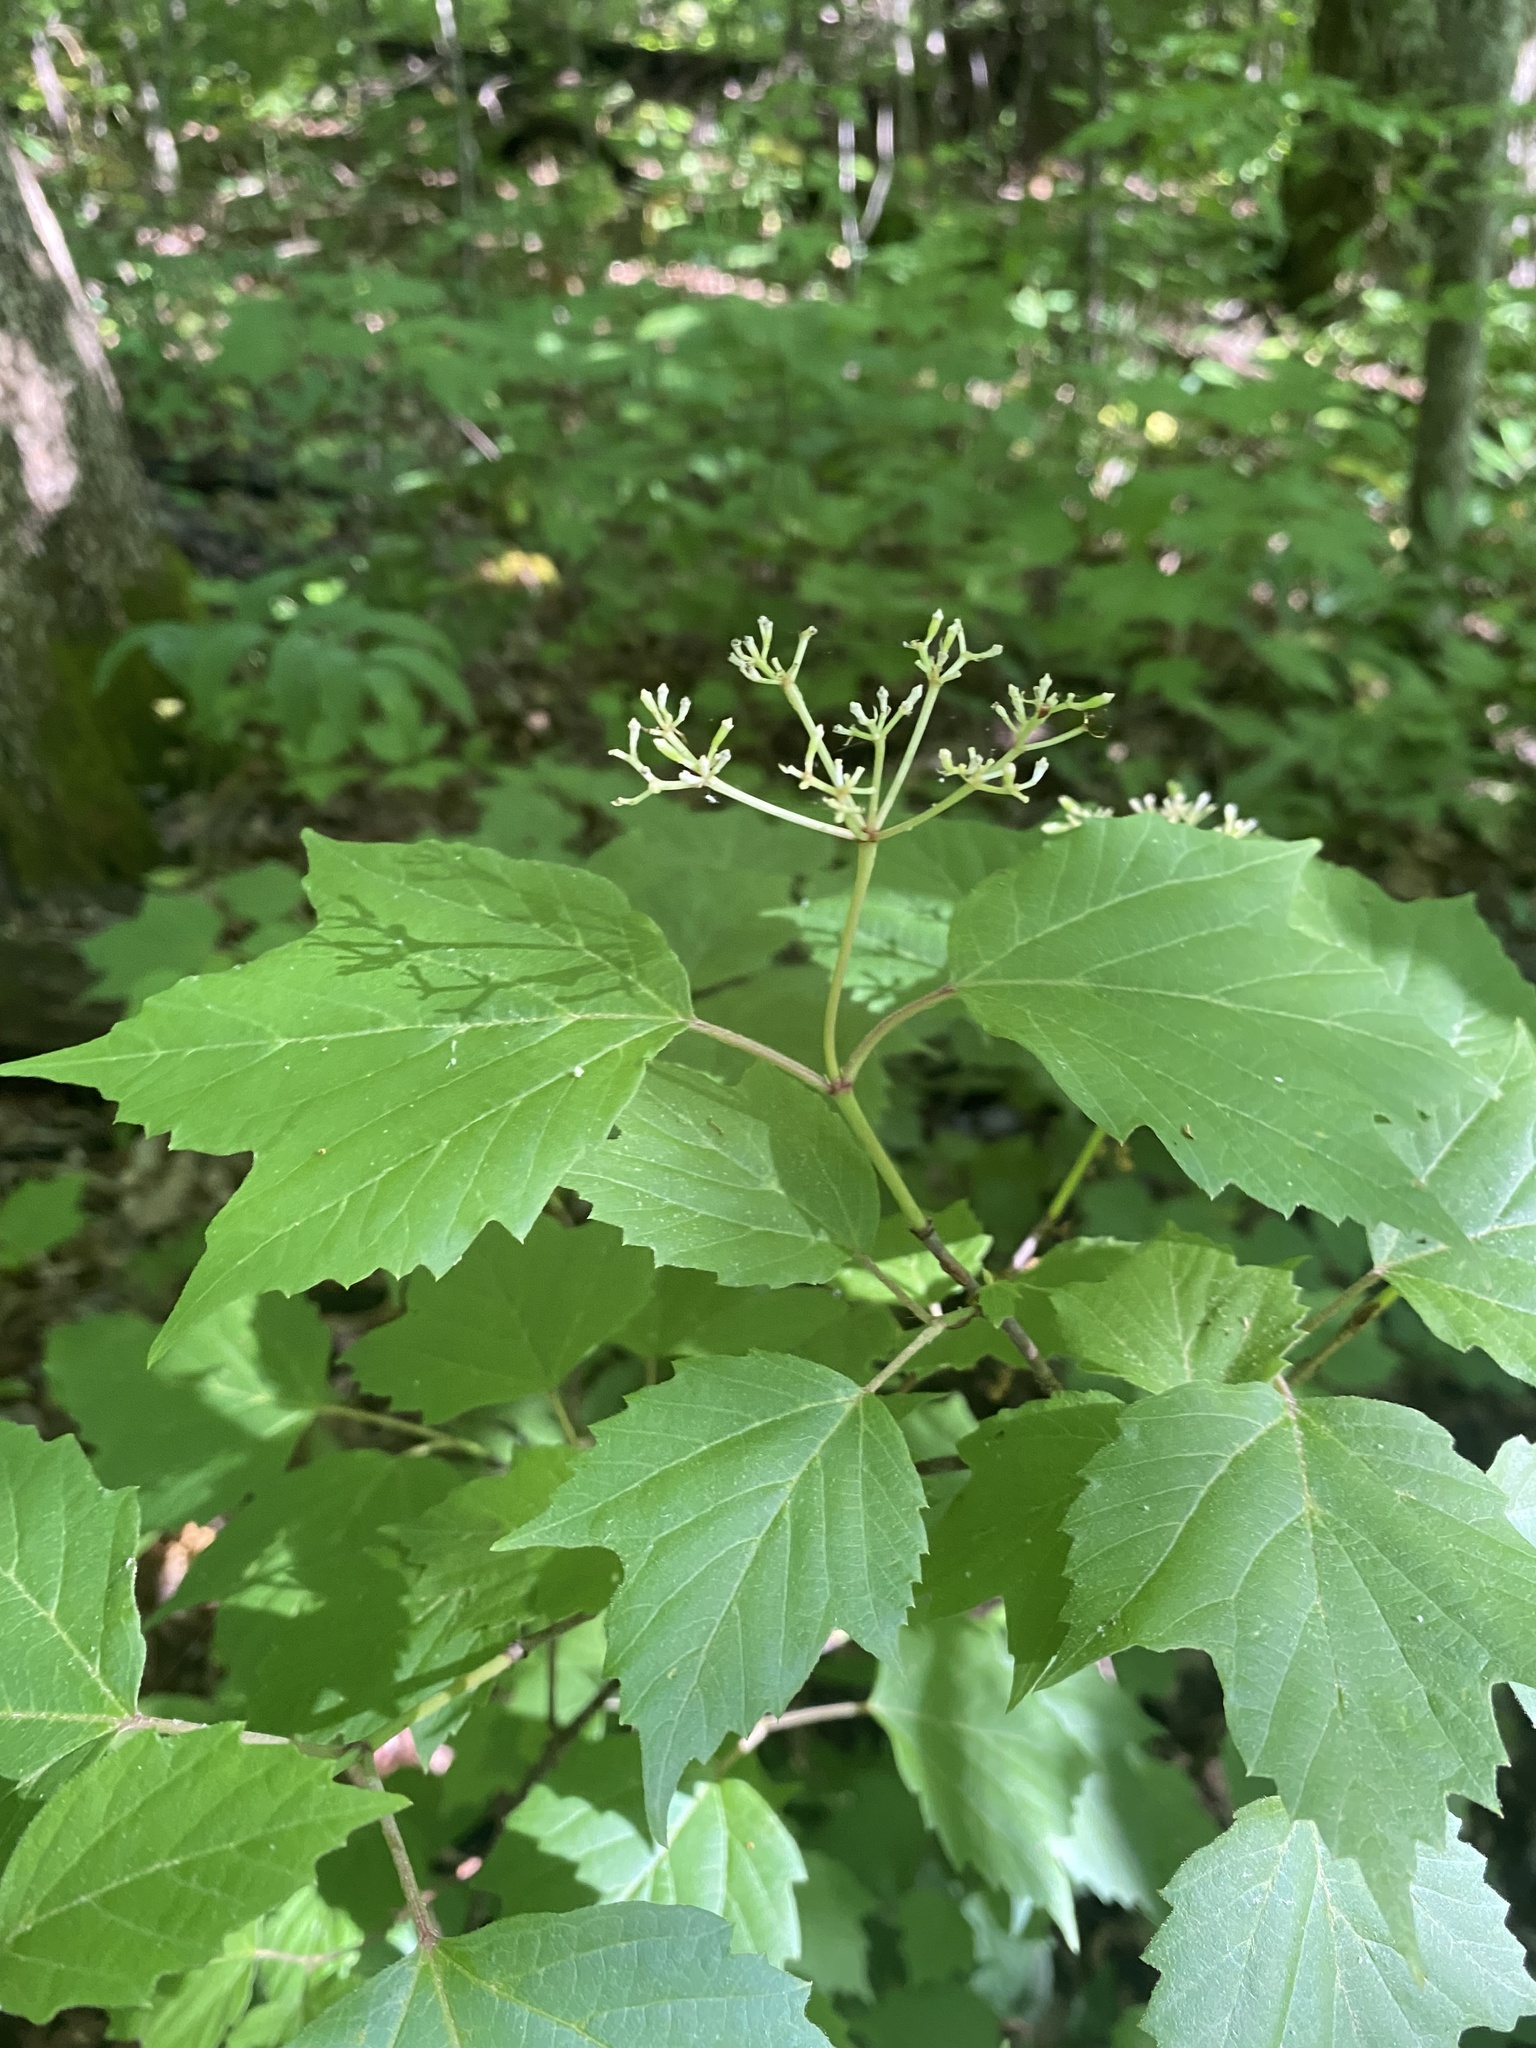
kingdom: Plantae
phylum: Tracheophyta
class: Magnoliopsida
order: Dipsacales
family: Viburnaceae
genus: Viburnum
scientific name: Viburnum acerifolium
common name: Dockmackie
